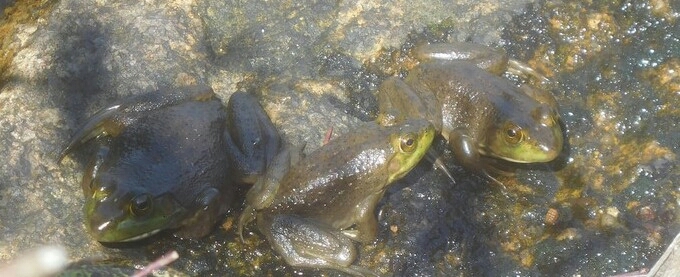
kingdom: Animalia
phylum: Chordata
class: Amphibia
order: Anura
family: Ranidae
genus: Lithobates
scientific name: Lithobates catesbeianus
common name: American bullfrog
